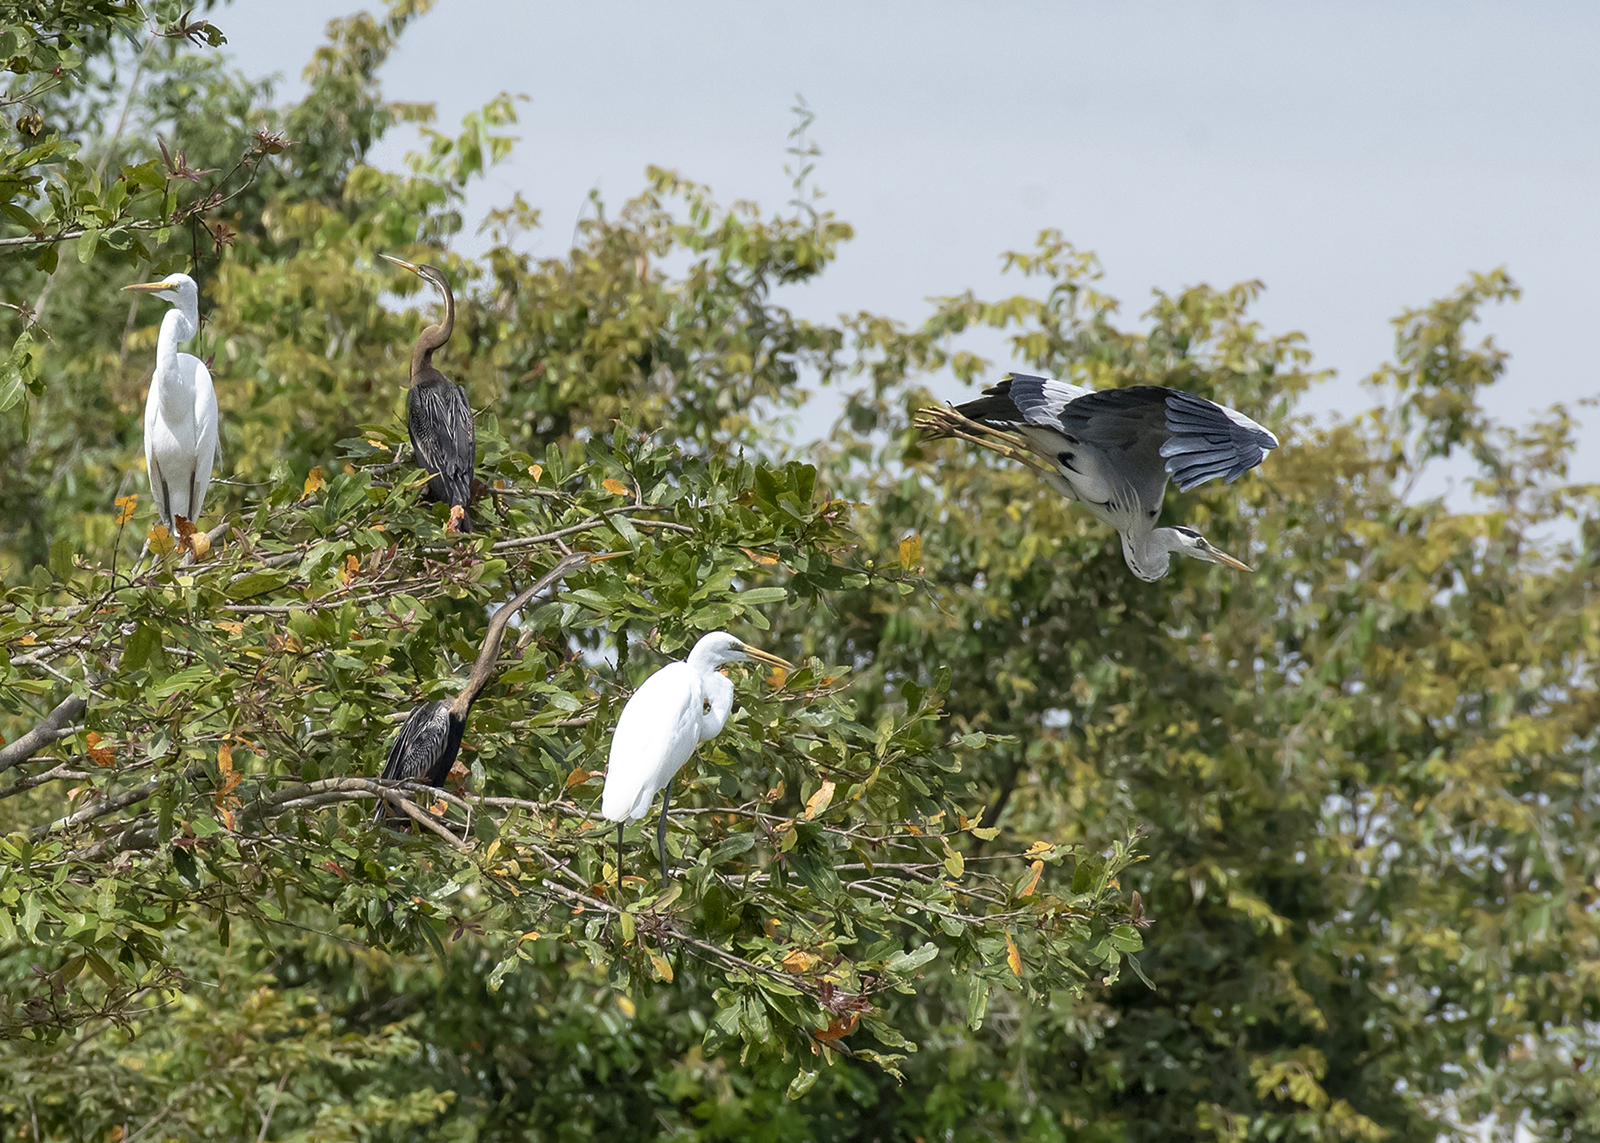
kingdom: Animalia
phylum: Chordata
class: Aves
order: Suliformes
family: Anhingidae
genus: Anhinga
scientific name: Anhinga melanogaster
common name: Oriental darter
